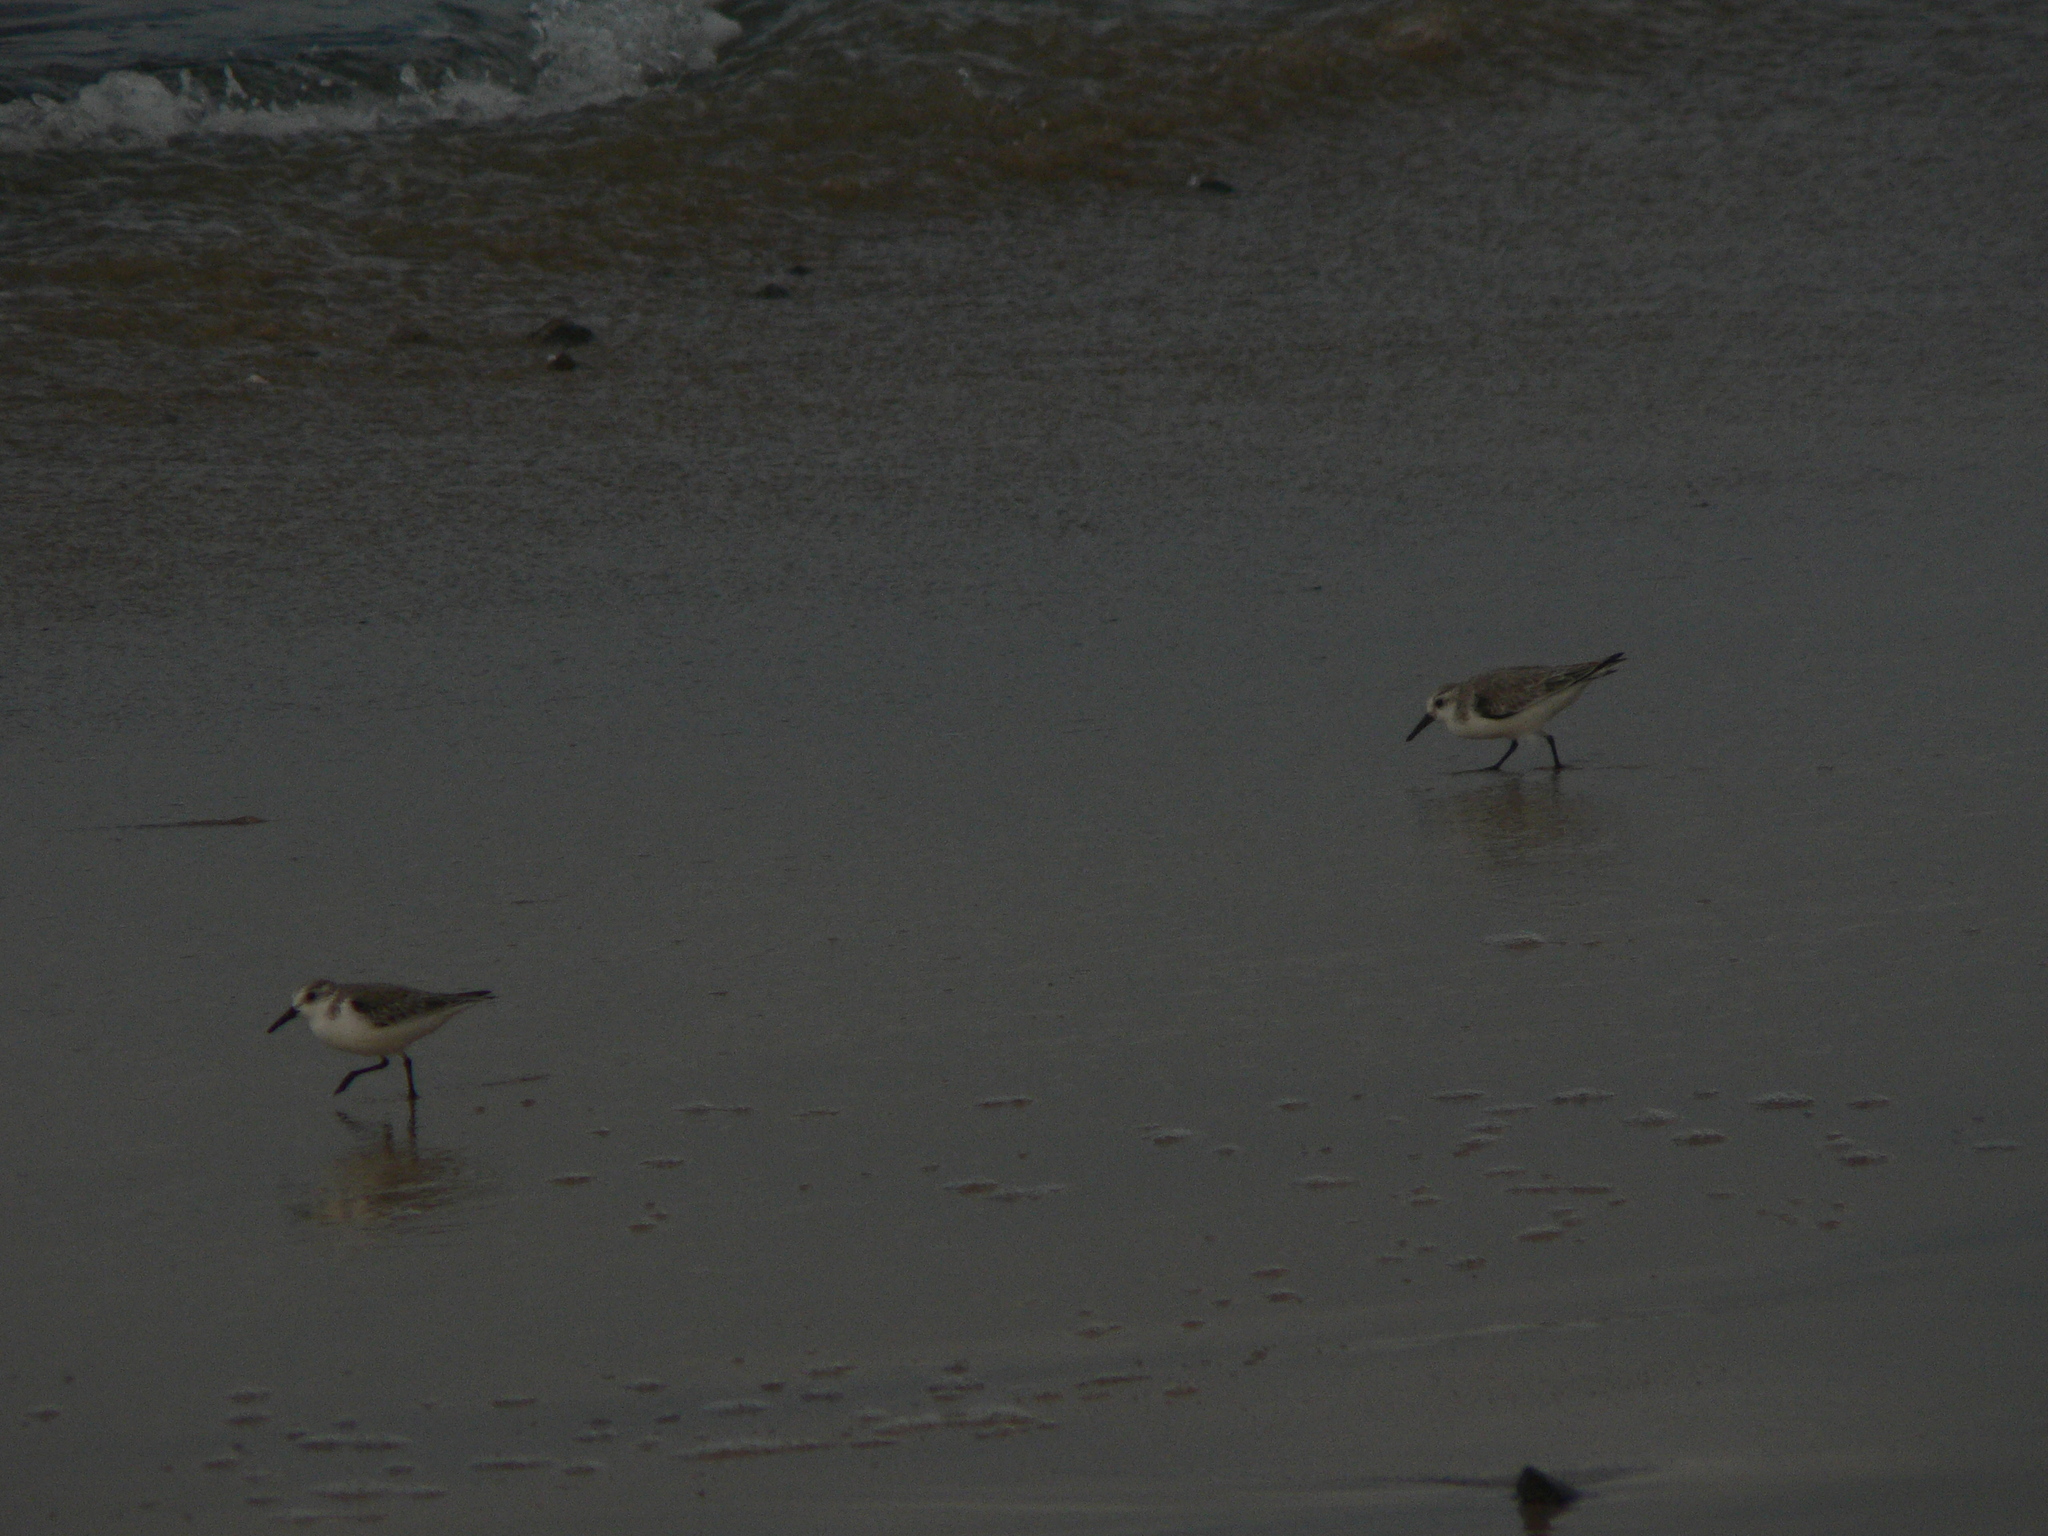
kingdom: Animalia
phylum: Chordata
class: Aves
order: Charadriiformes
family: Scolopacidae
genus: Calidris
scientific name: Calidris alba
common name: Sanderling
